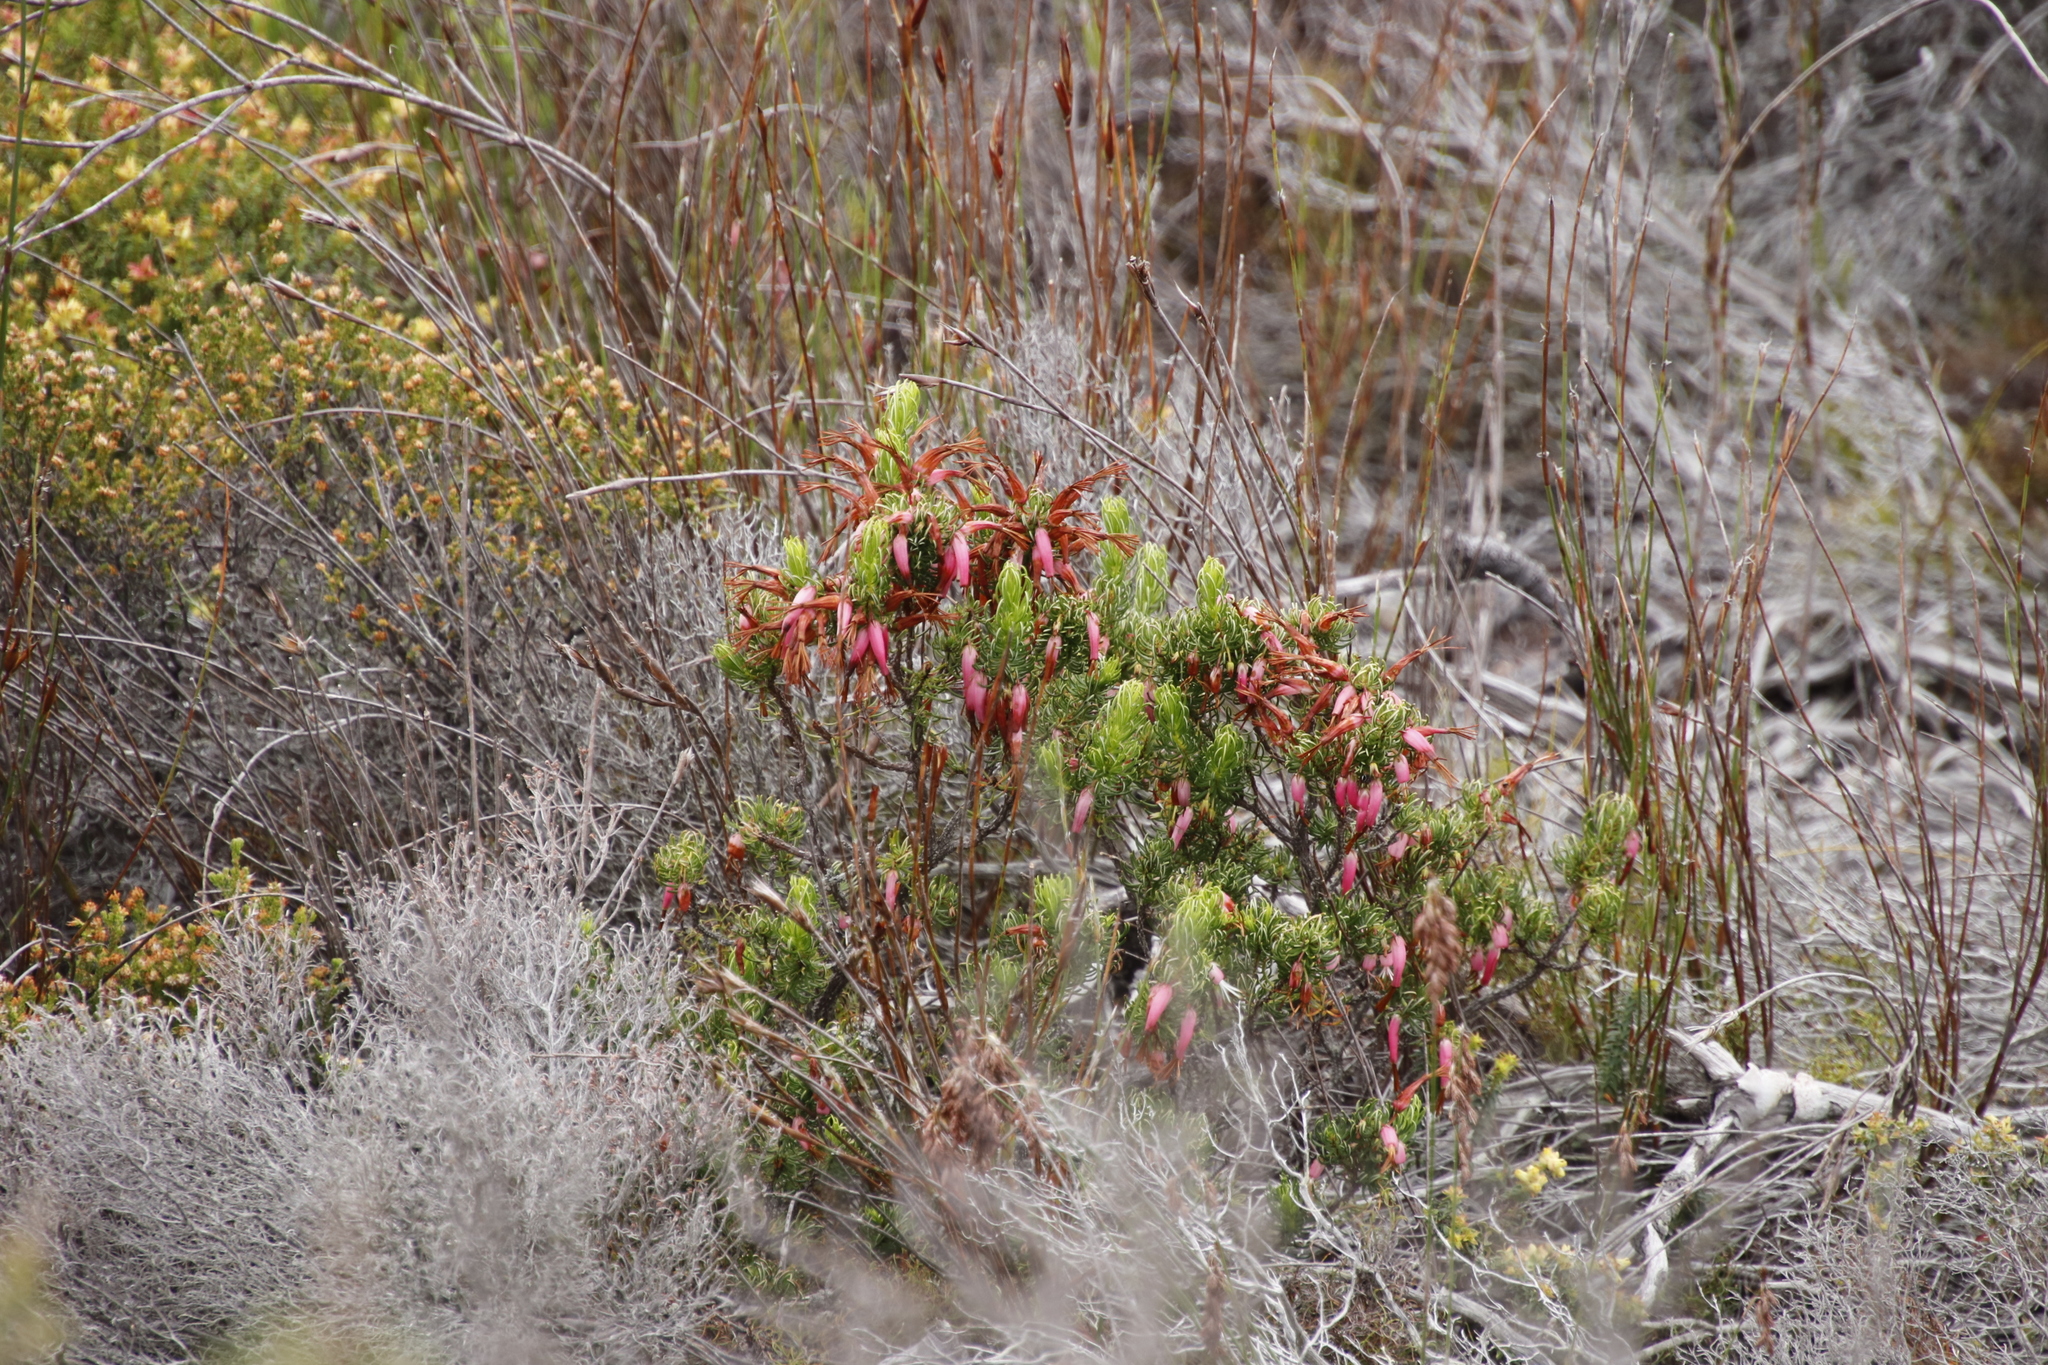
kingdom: Plantae
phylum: Tracheophyta
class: Magnoliopsida
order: Ericales
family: Ericaceae
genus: Erica
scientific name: Erica plukenetii
